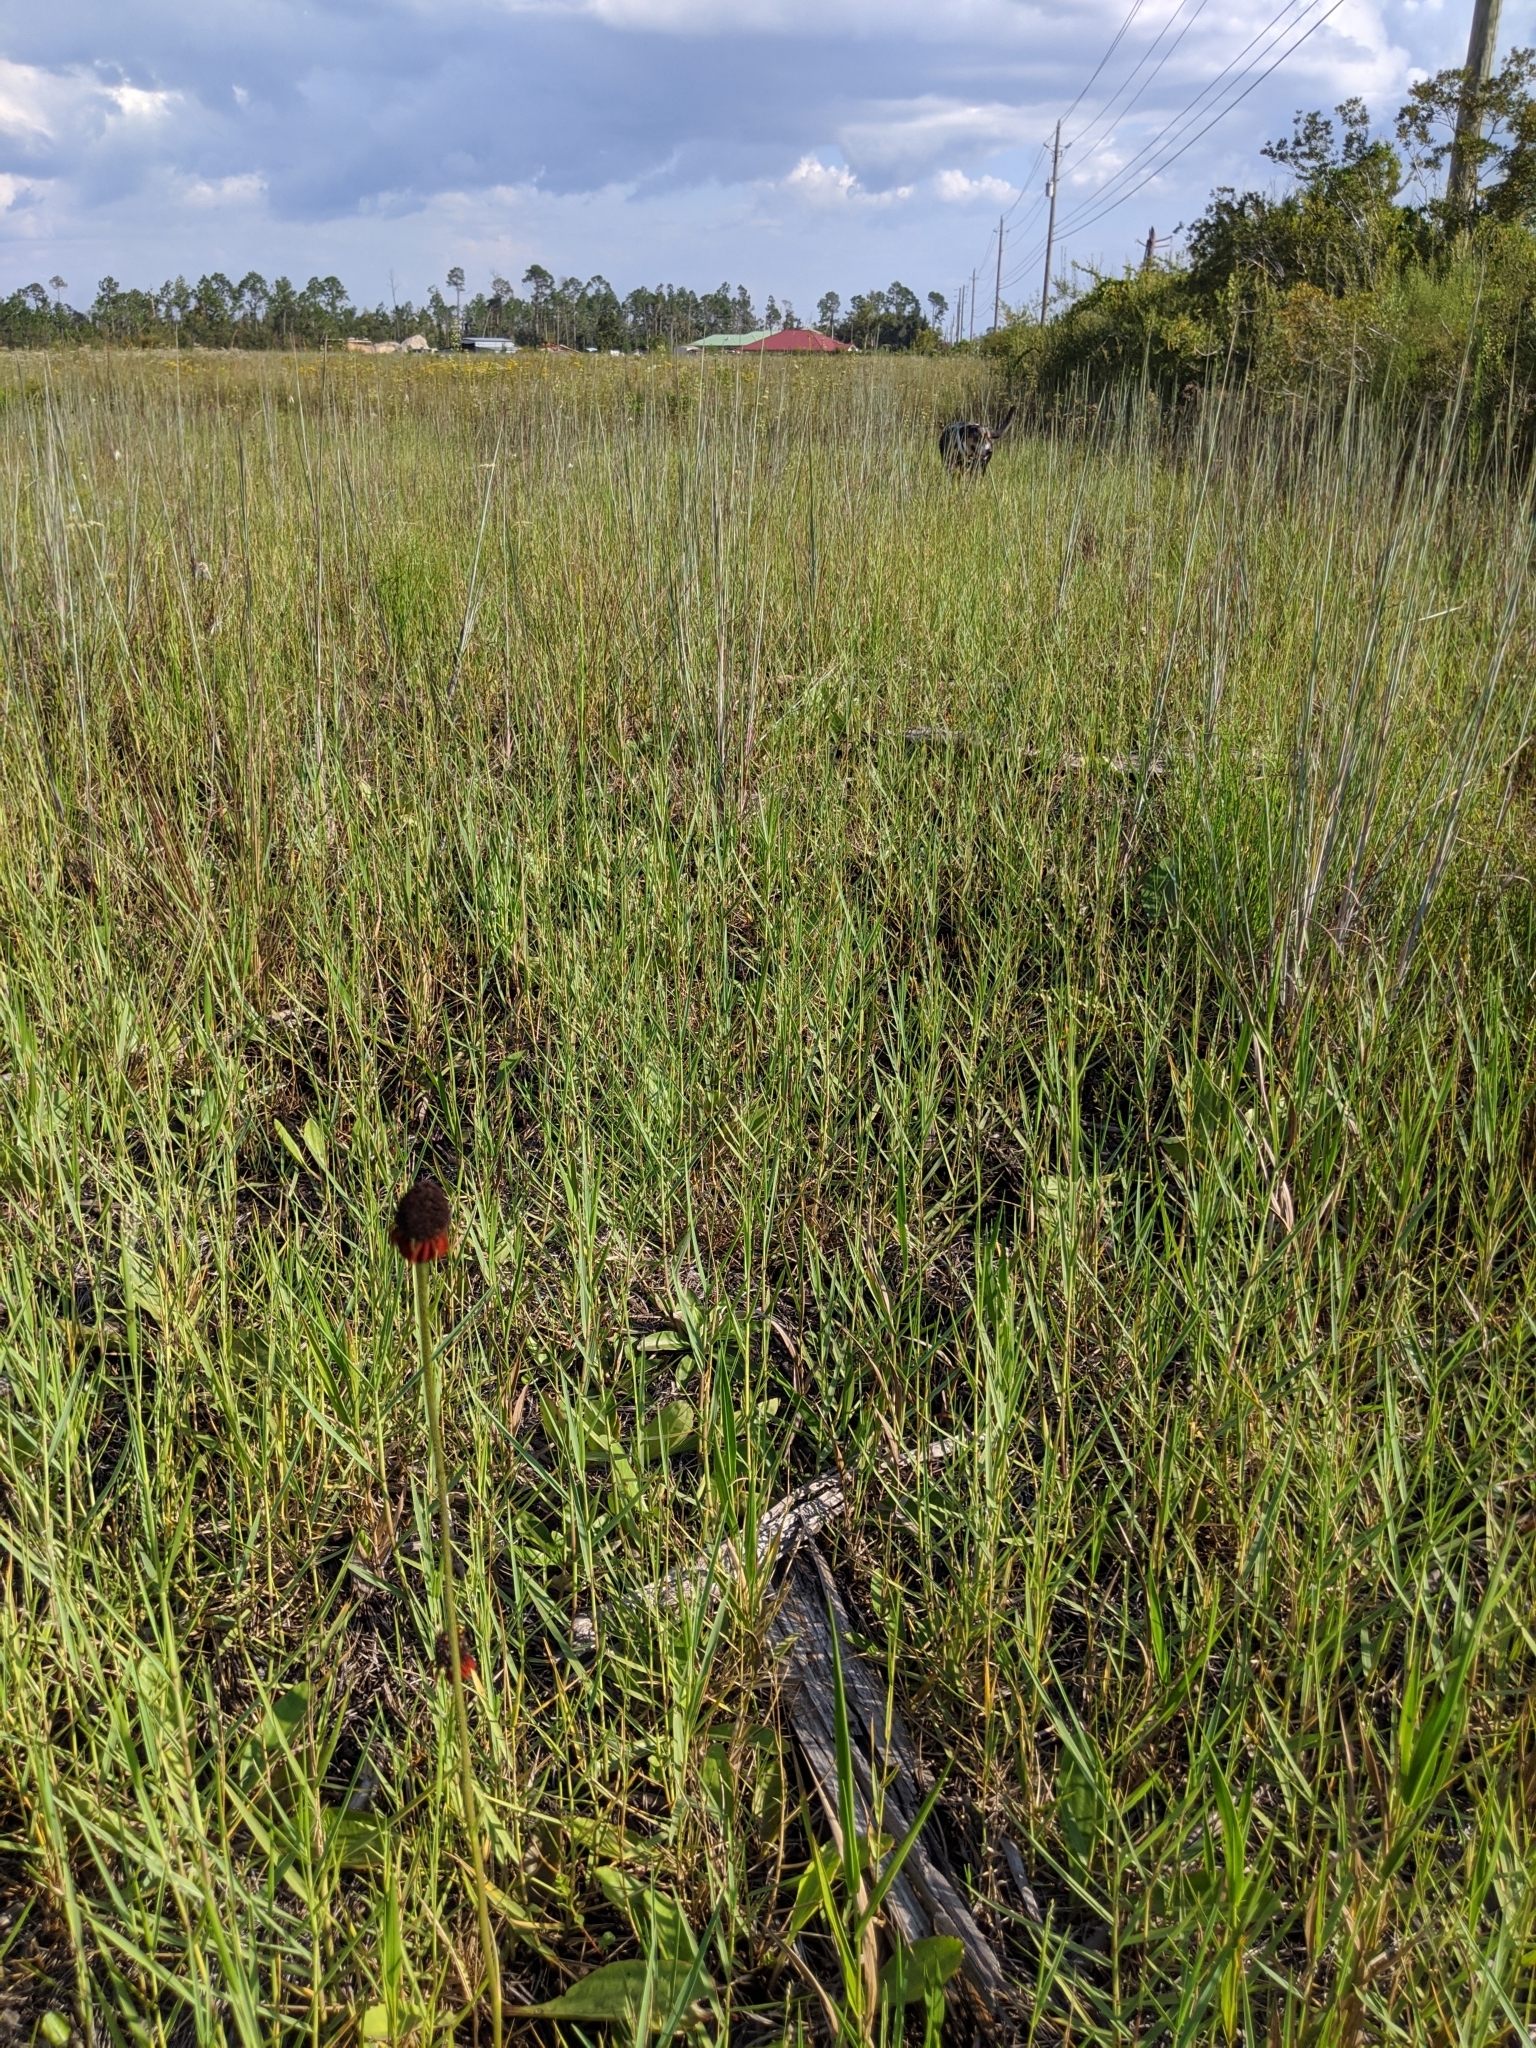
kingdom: Plantae
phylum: Tracheophyta
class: Magnoliopsida
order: Asterales
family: Asteraceae
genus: Rudbeckia
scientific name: Rudbeckia graminifolia
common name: Grass-leaf coneflower
